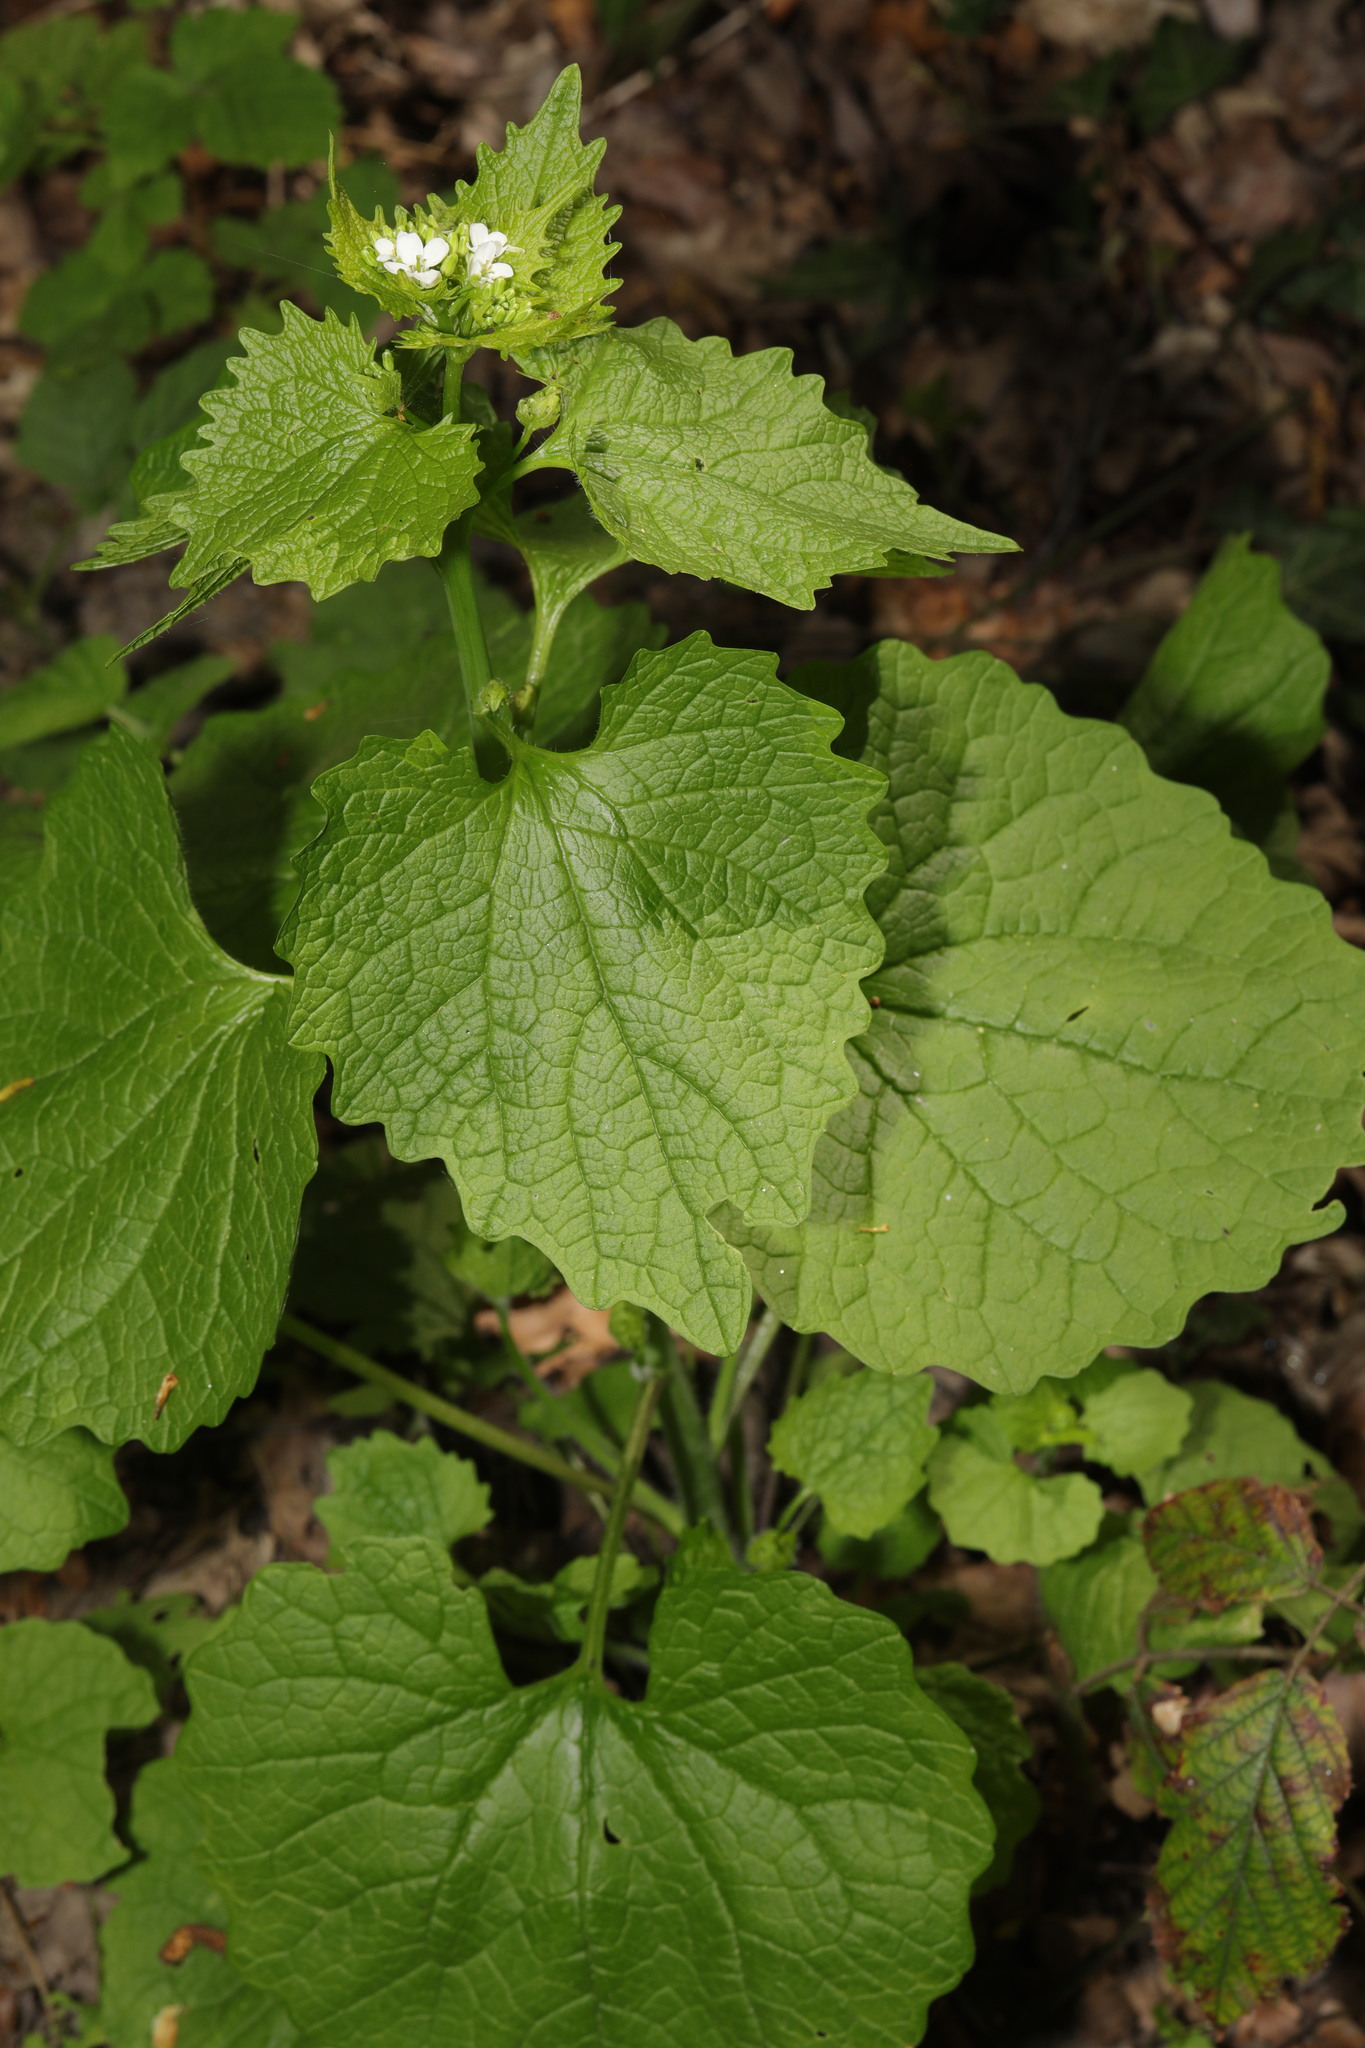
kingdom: Plantae
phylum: Tracheophyta
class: Magnoliopsida
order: Brassicales
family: Brassicaceae
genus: Alliaria
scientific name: Alliaria petiolata
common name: Garlic mustard
